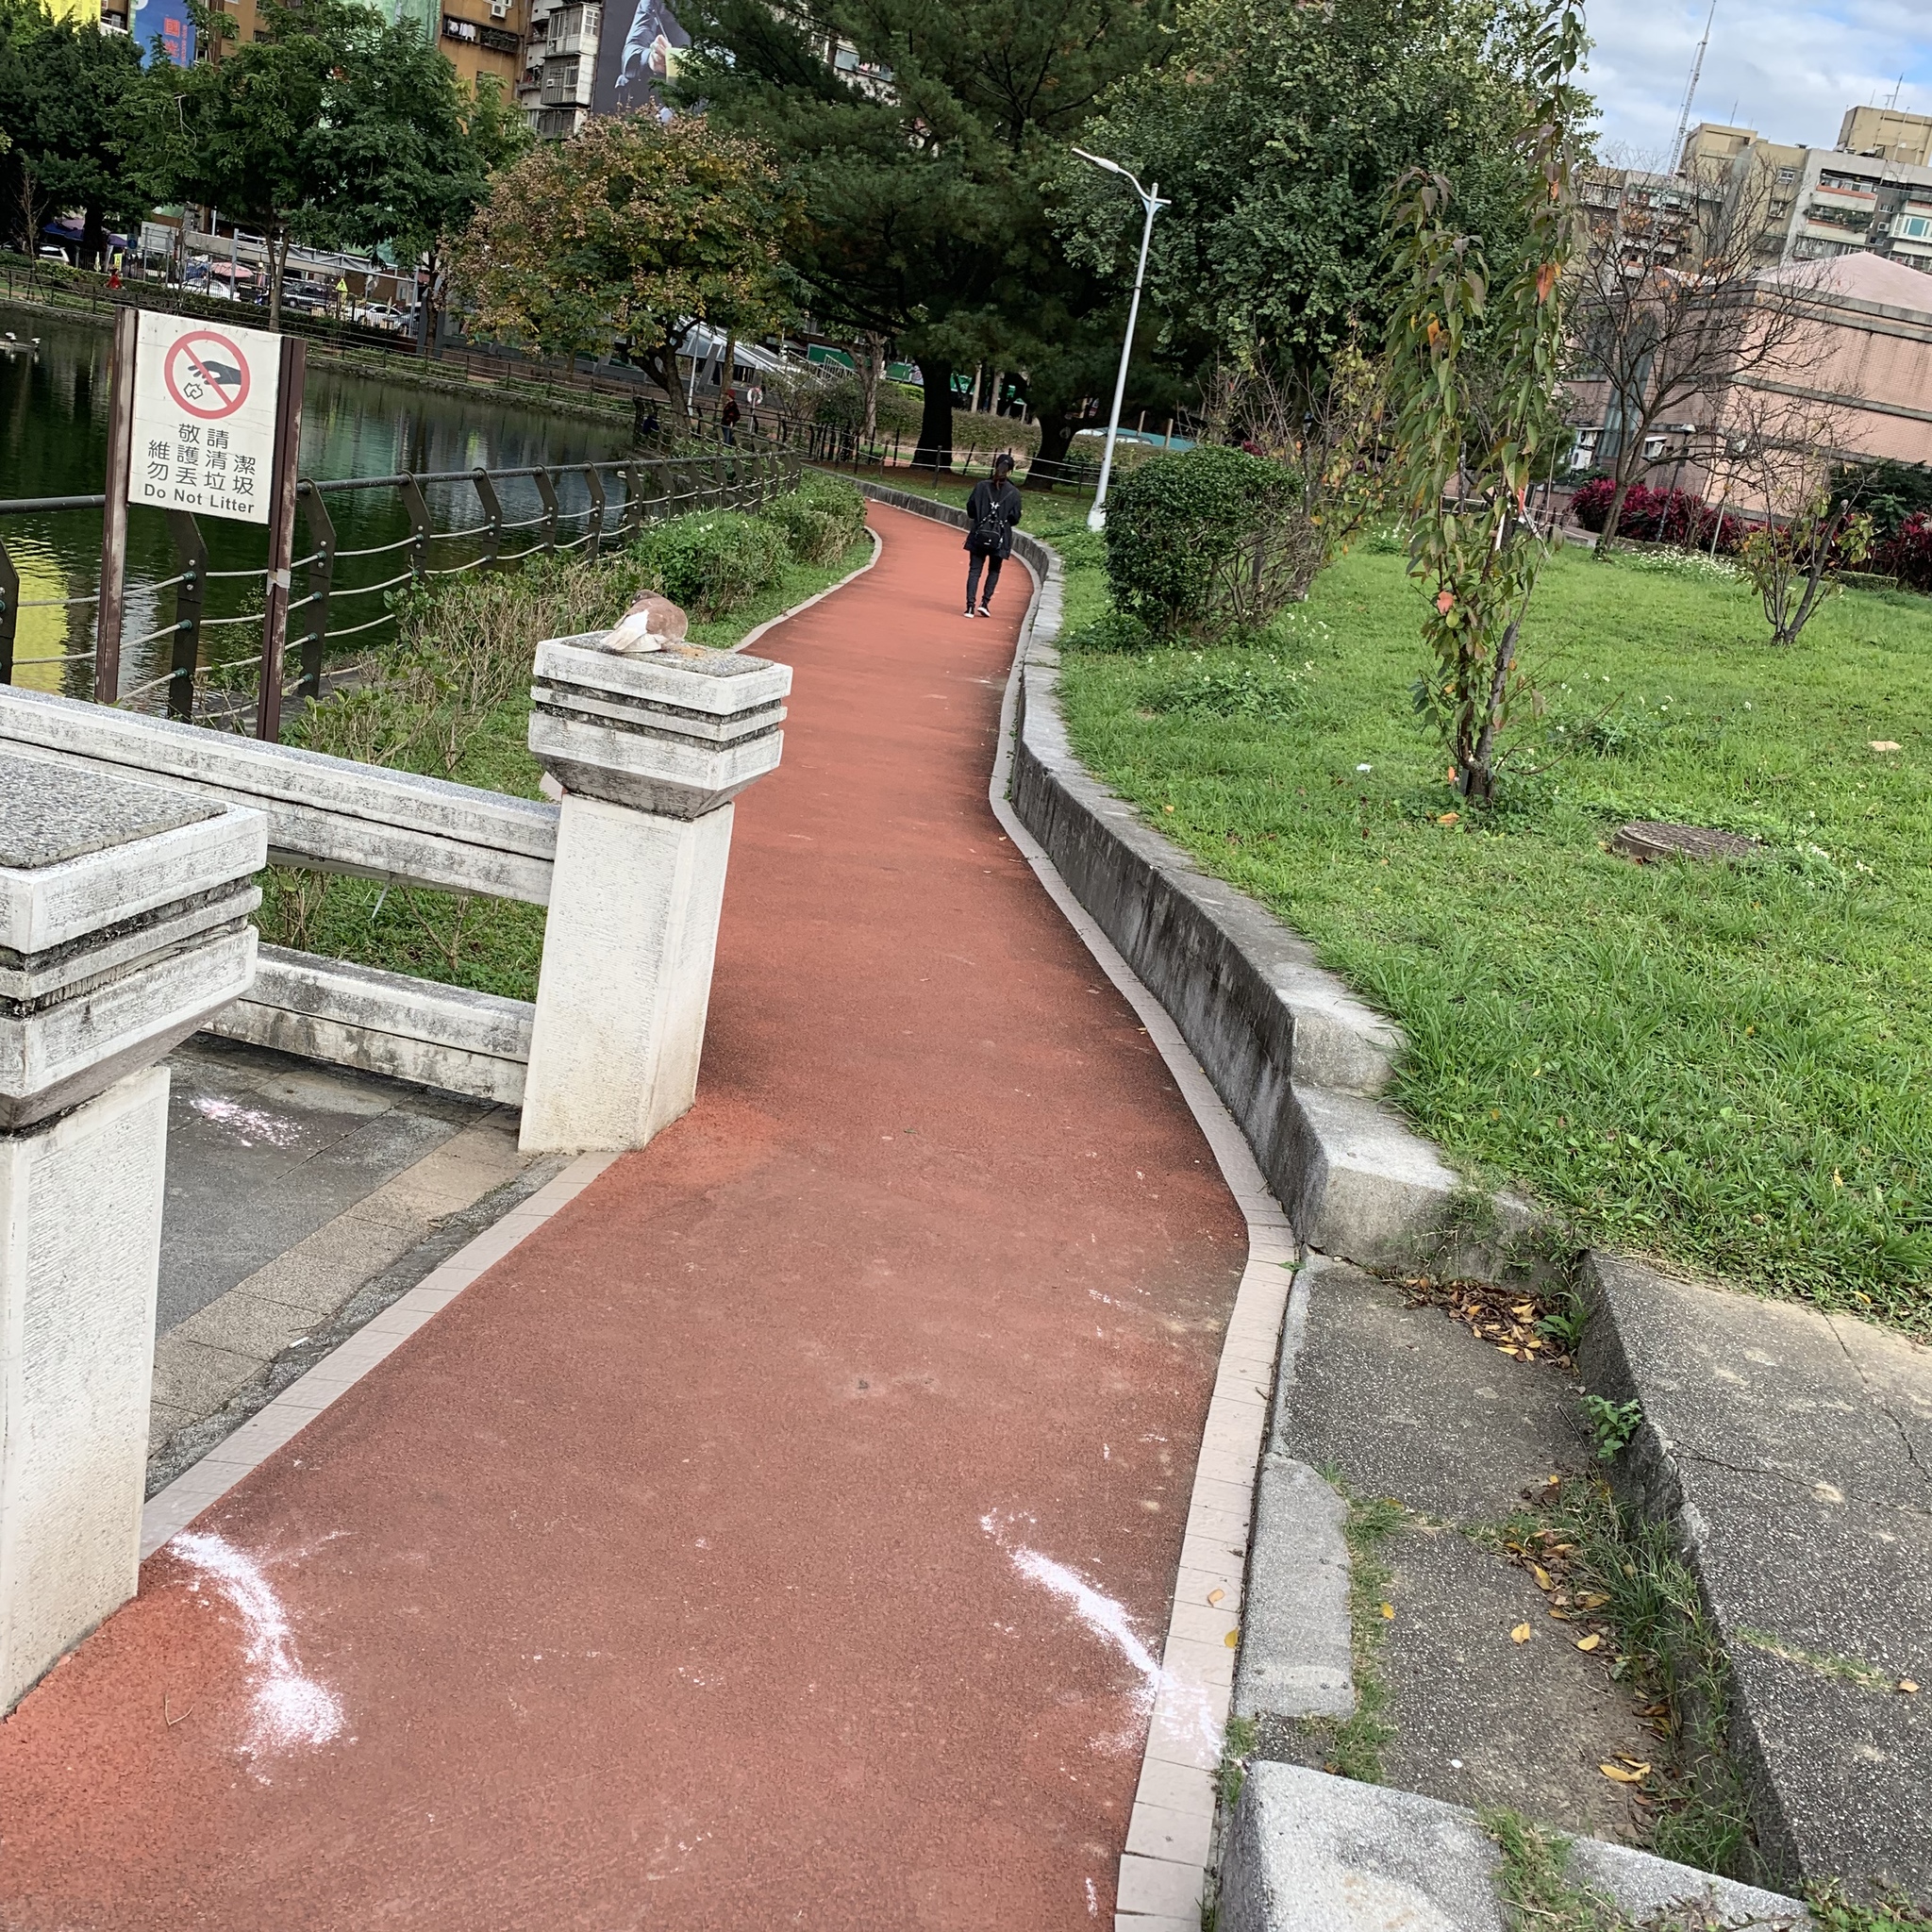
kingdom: Animalia
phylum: Chordata
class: Aves
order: Columbiformes
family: Columbidae
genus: Columba
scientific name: Columba livia
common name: Rock pigeon
